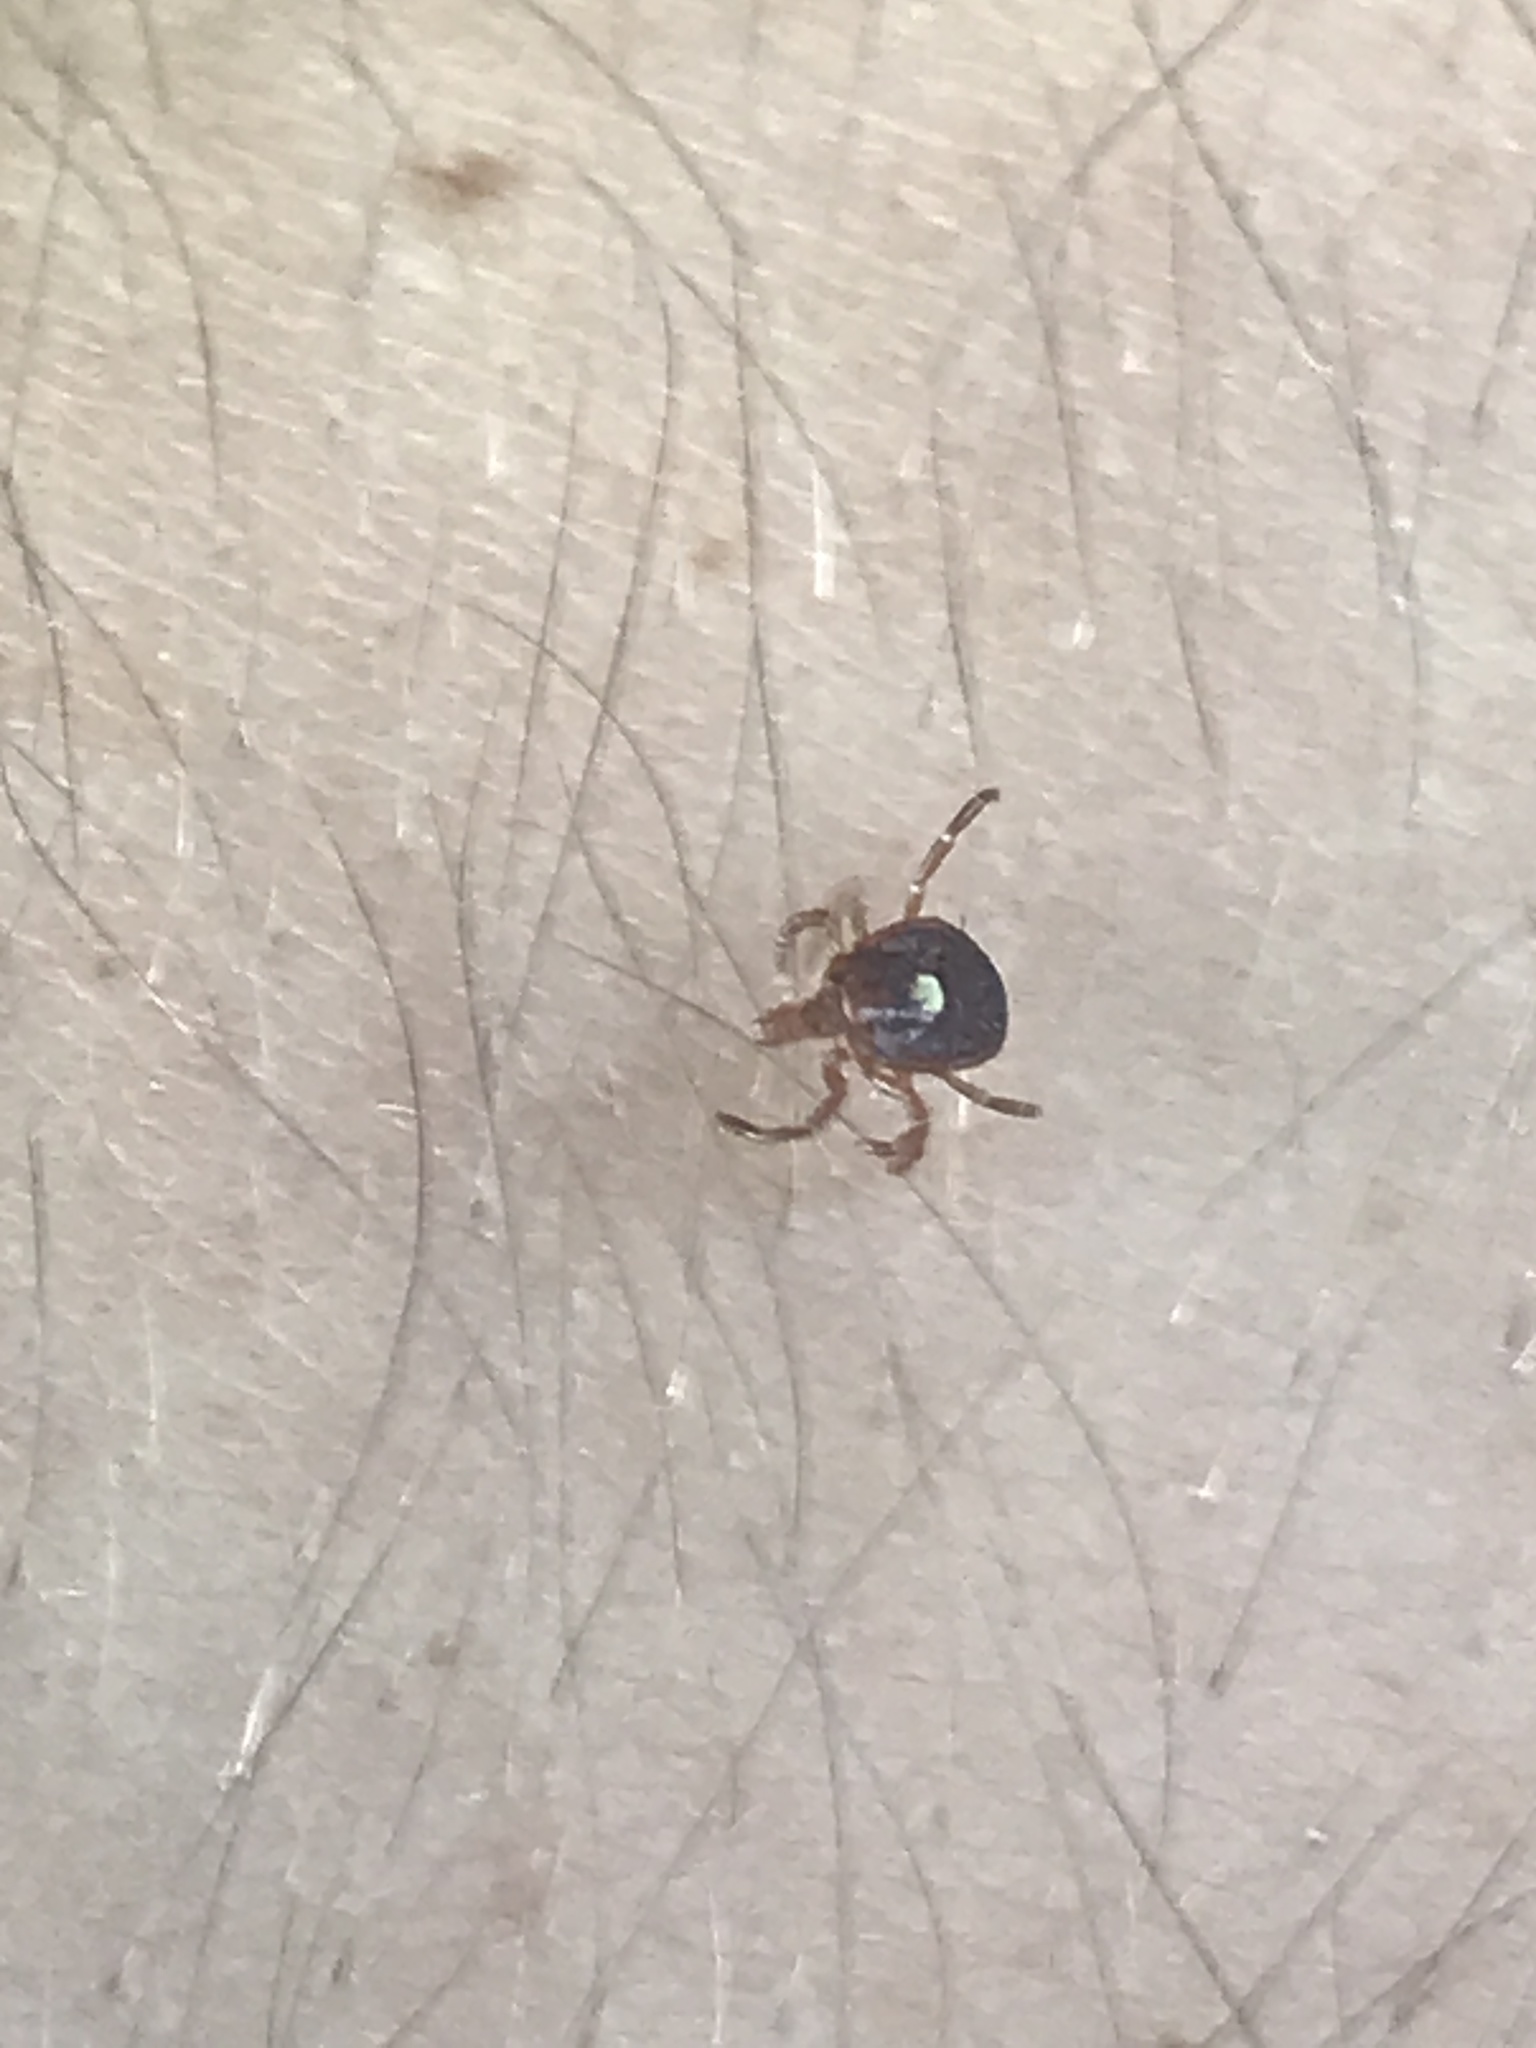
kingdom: Animalia
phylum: Arthropoda
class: Arachnida
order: Ixodida
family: Ixodidae
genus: Amblyomma
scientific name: Amblyomma americanum
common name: Lone star tick
